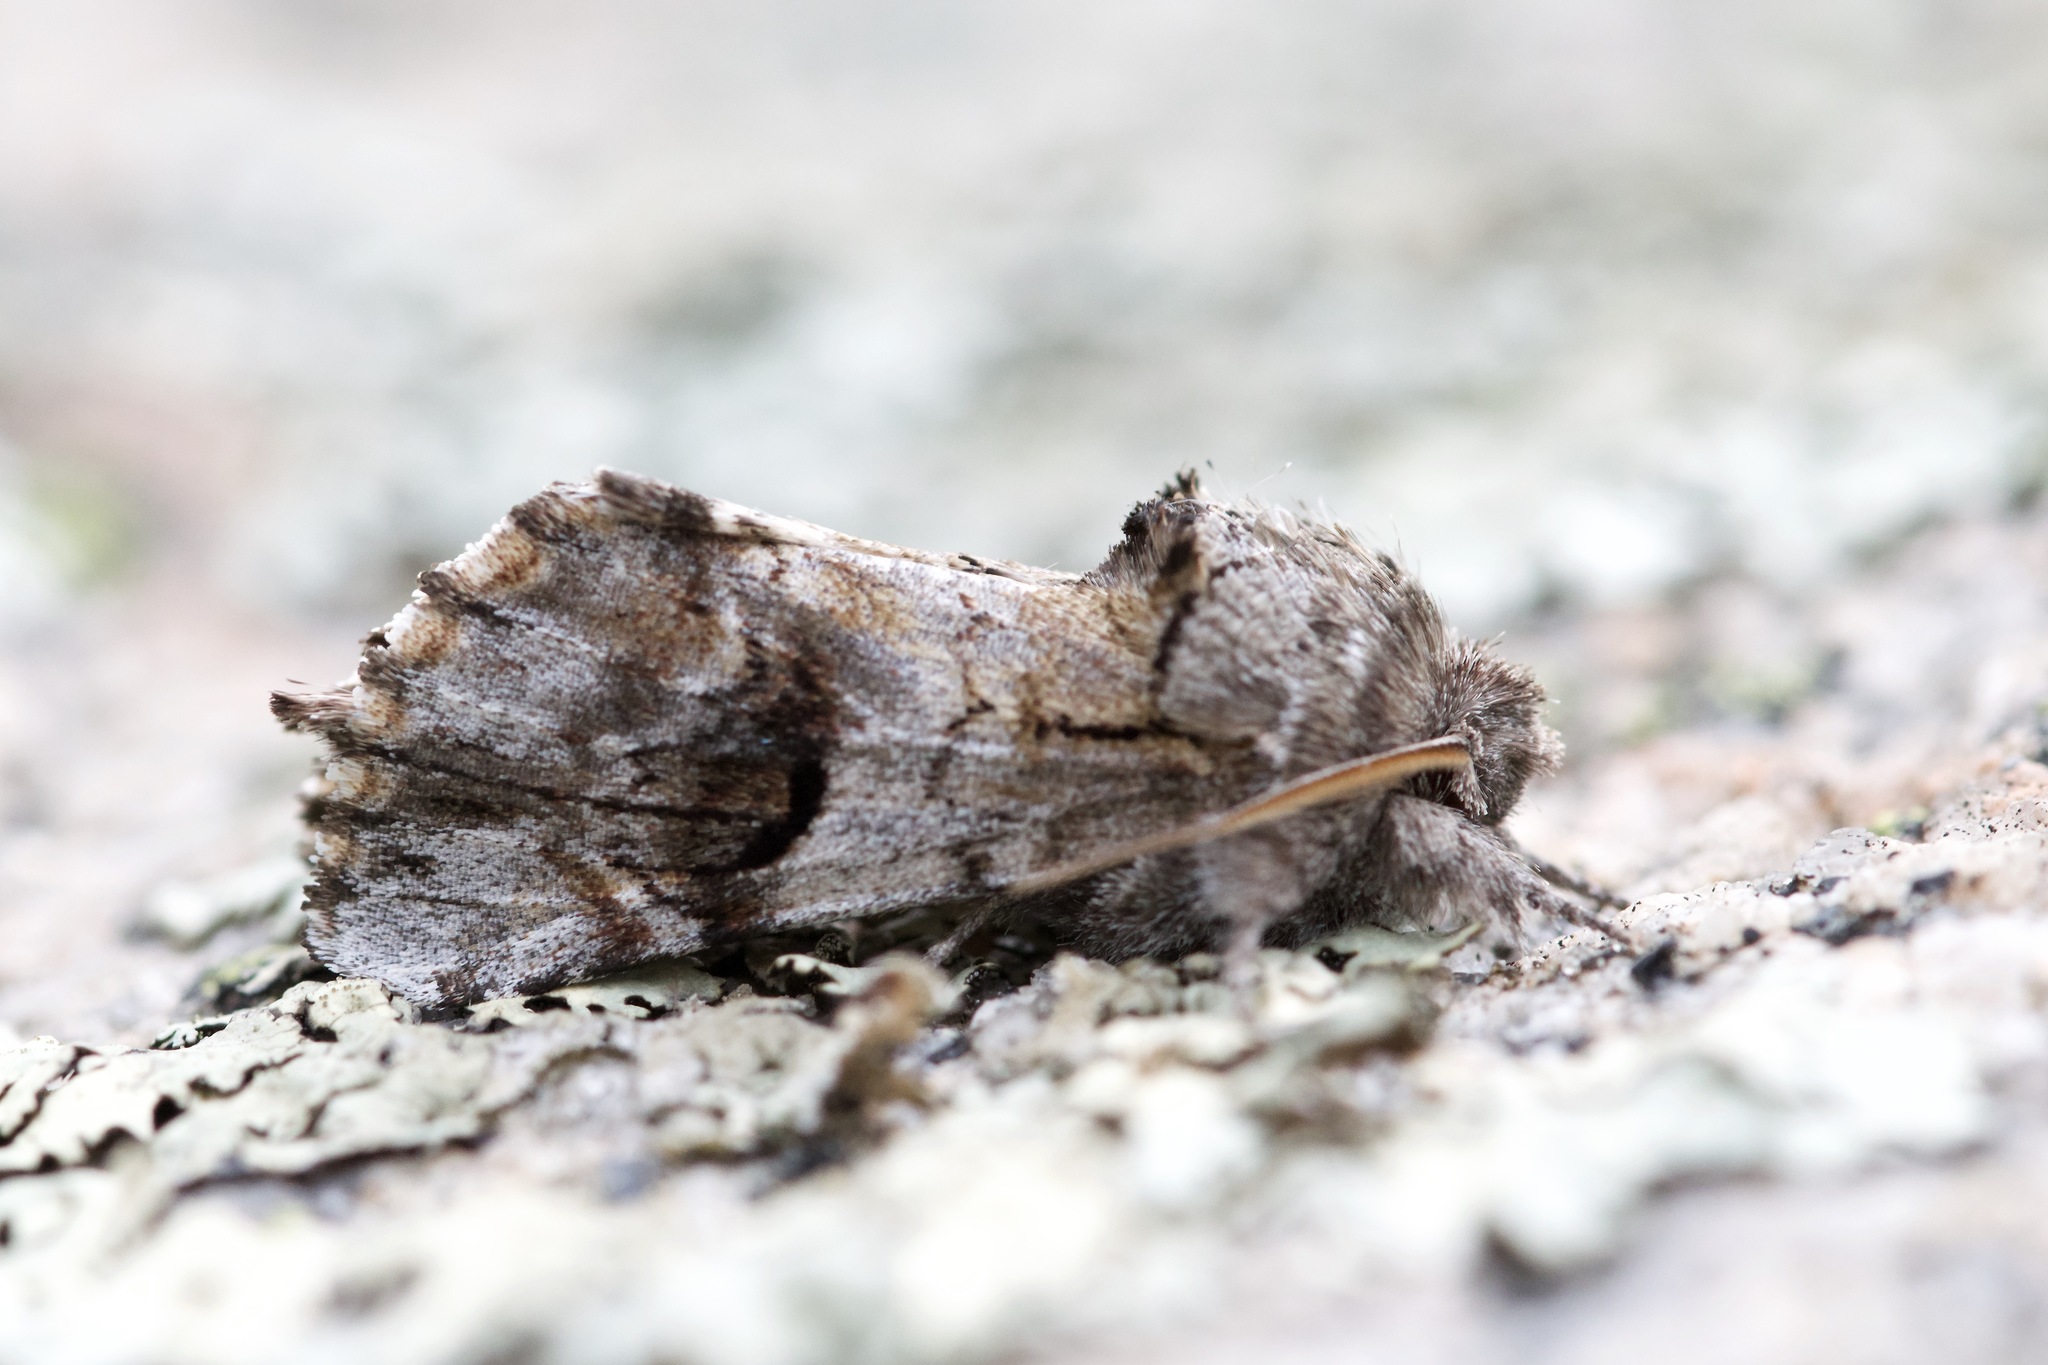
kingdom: Animalia
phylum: Arthropoda
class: Insecta
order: Lepidoptera
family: Notodontidae
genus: Schizura
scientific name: Schizura
